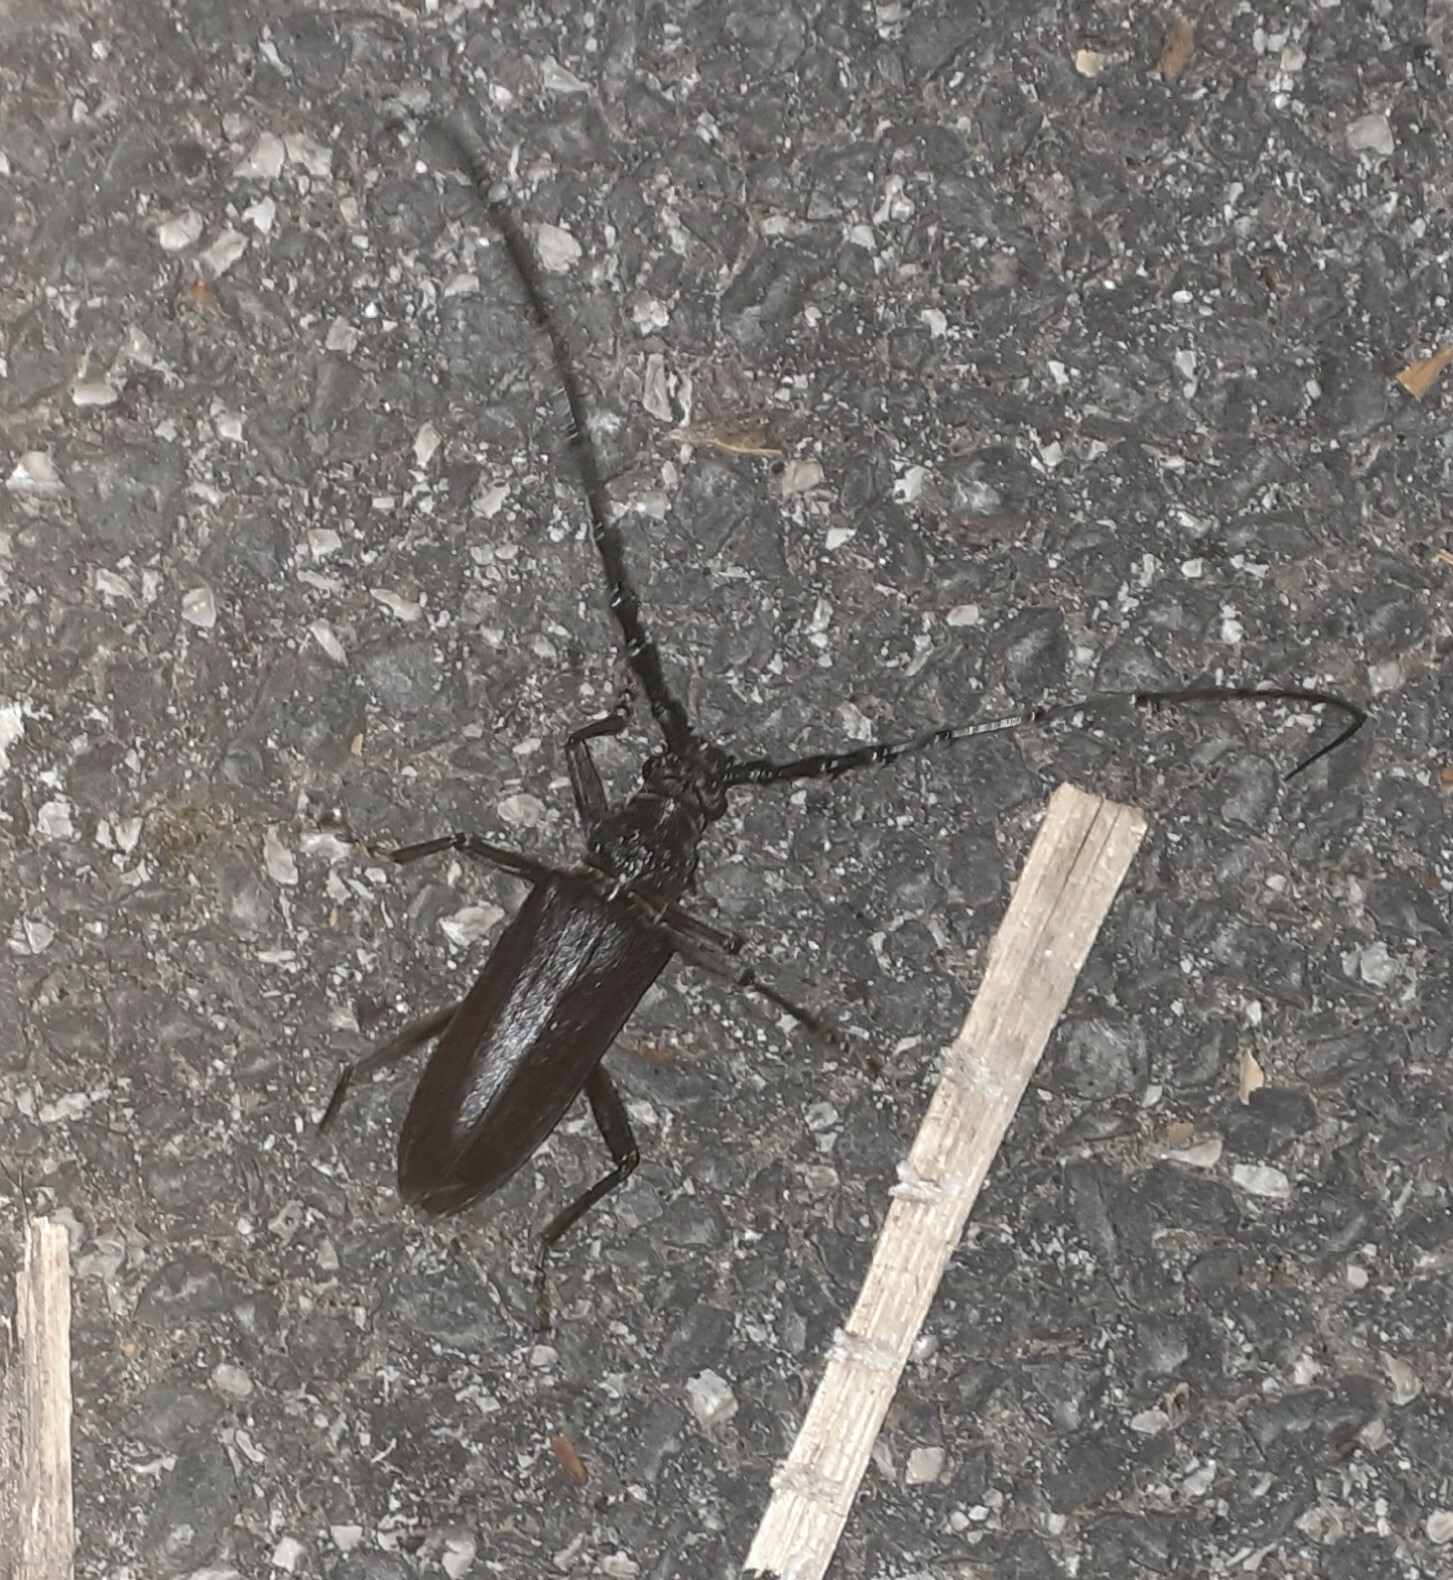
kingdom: Animalia
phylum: Arthropoda
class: Insecta
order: Coleoptera
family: Cerambycidae
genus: Cerambyx
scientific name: Cerambyx welensii
